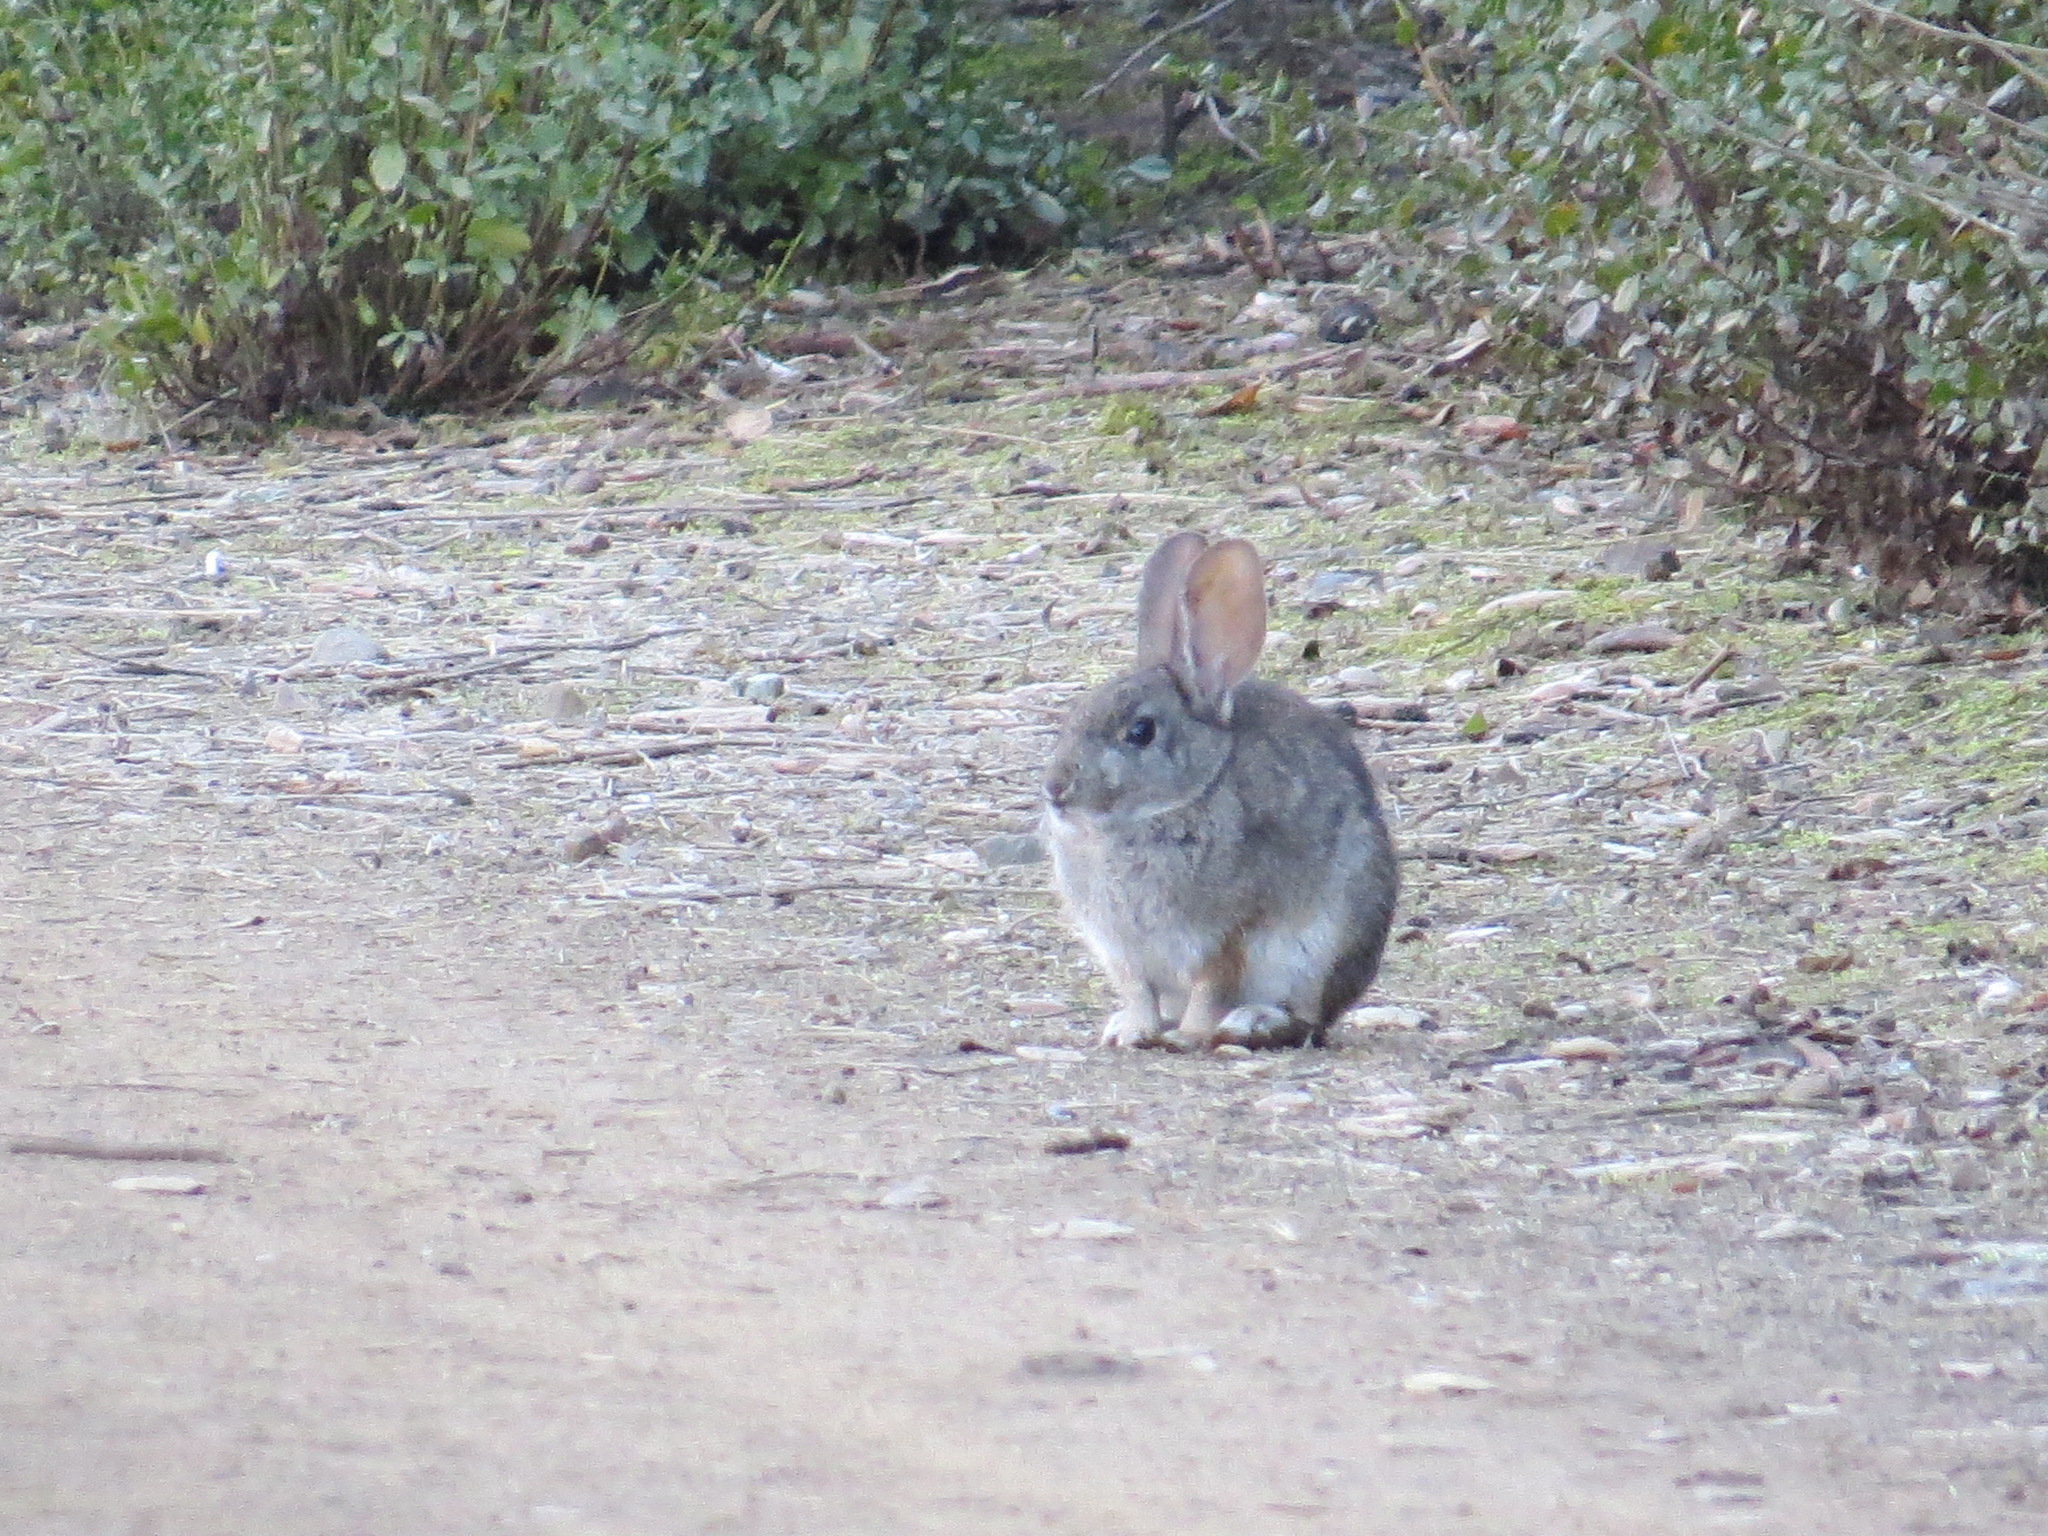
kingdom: Animalia
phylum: Chordata
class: Mammalia
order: Lagomorpha
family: Leporidae
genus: Sylvilagus
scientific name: Sylvilagus bachmani
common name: Brush rabbit
